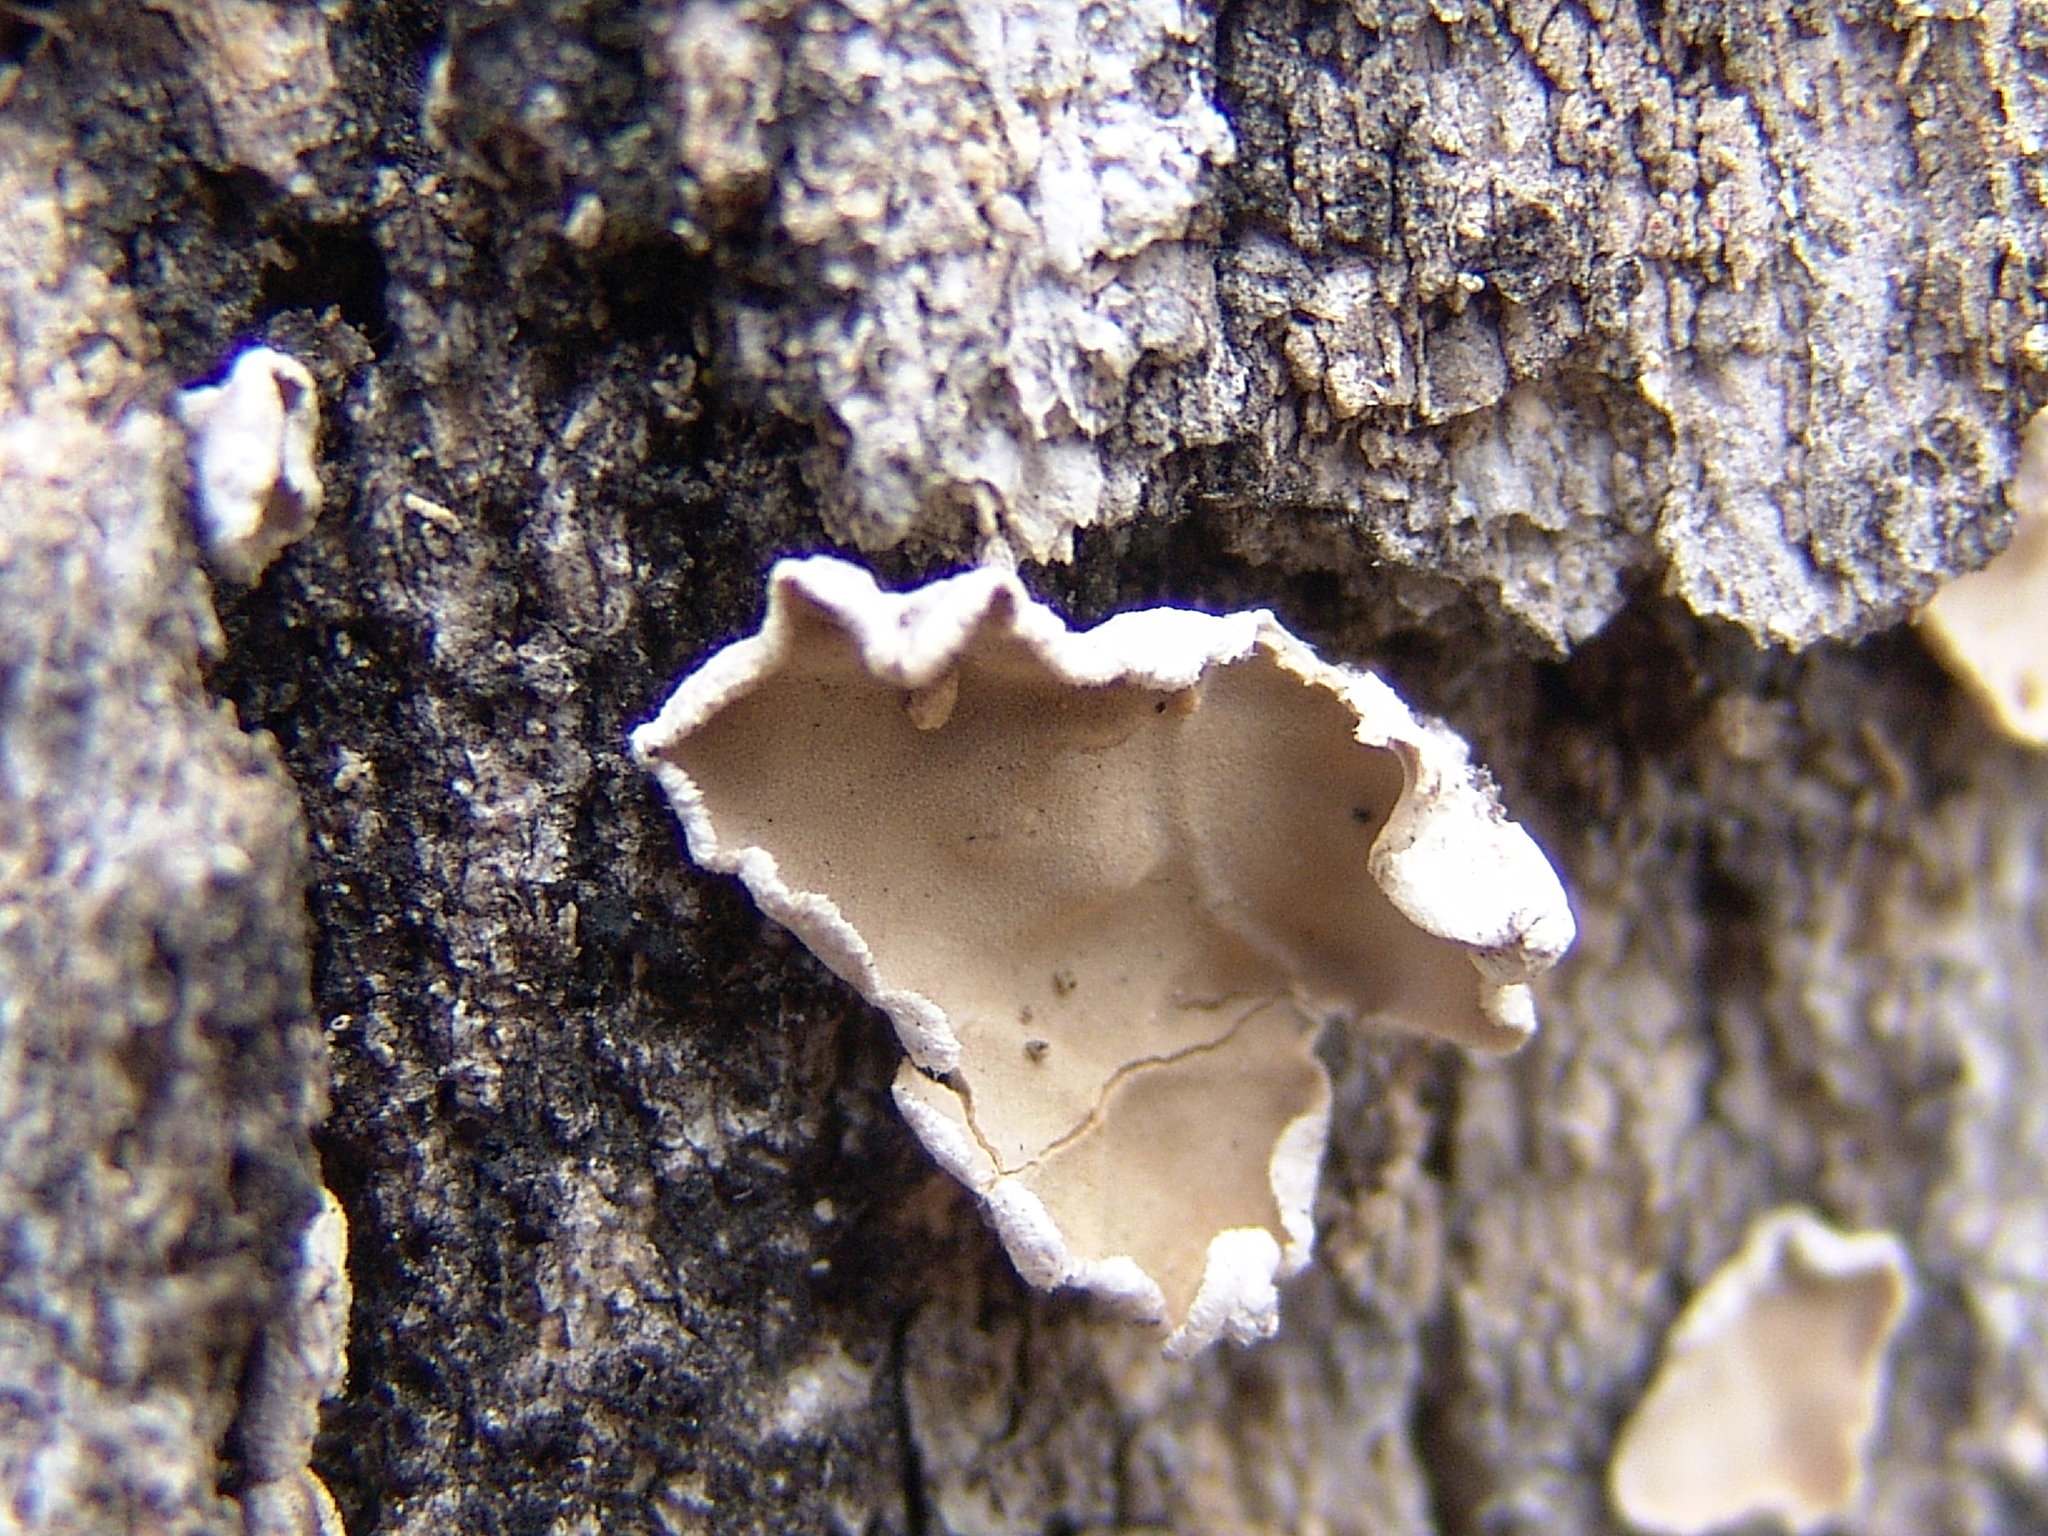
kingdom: Fungi
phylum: Basidiomycota
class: Agaricomycetes
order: Russulales
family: Stereaceae
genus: Acanthophysium
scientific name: Acanthophysium oakesii
